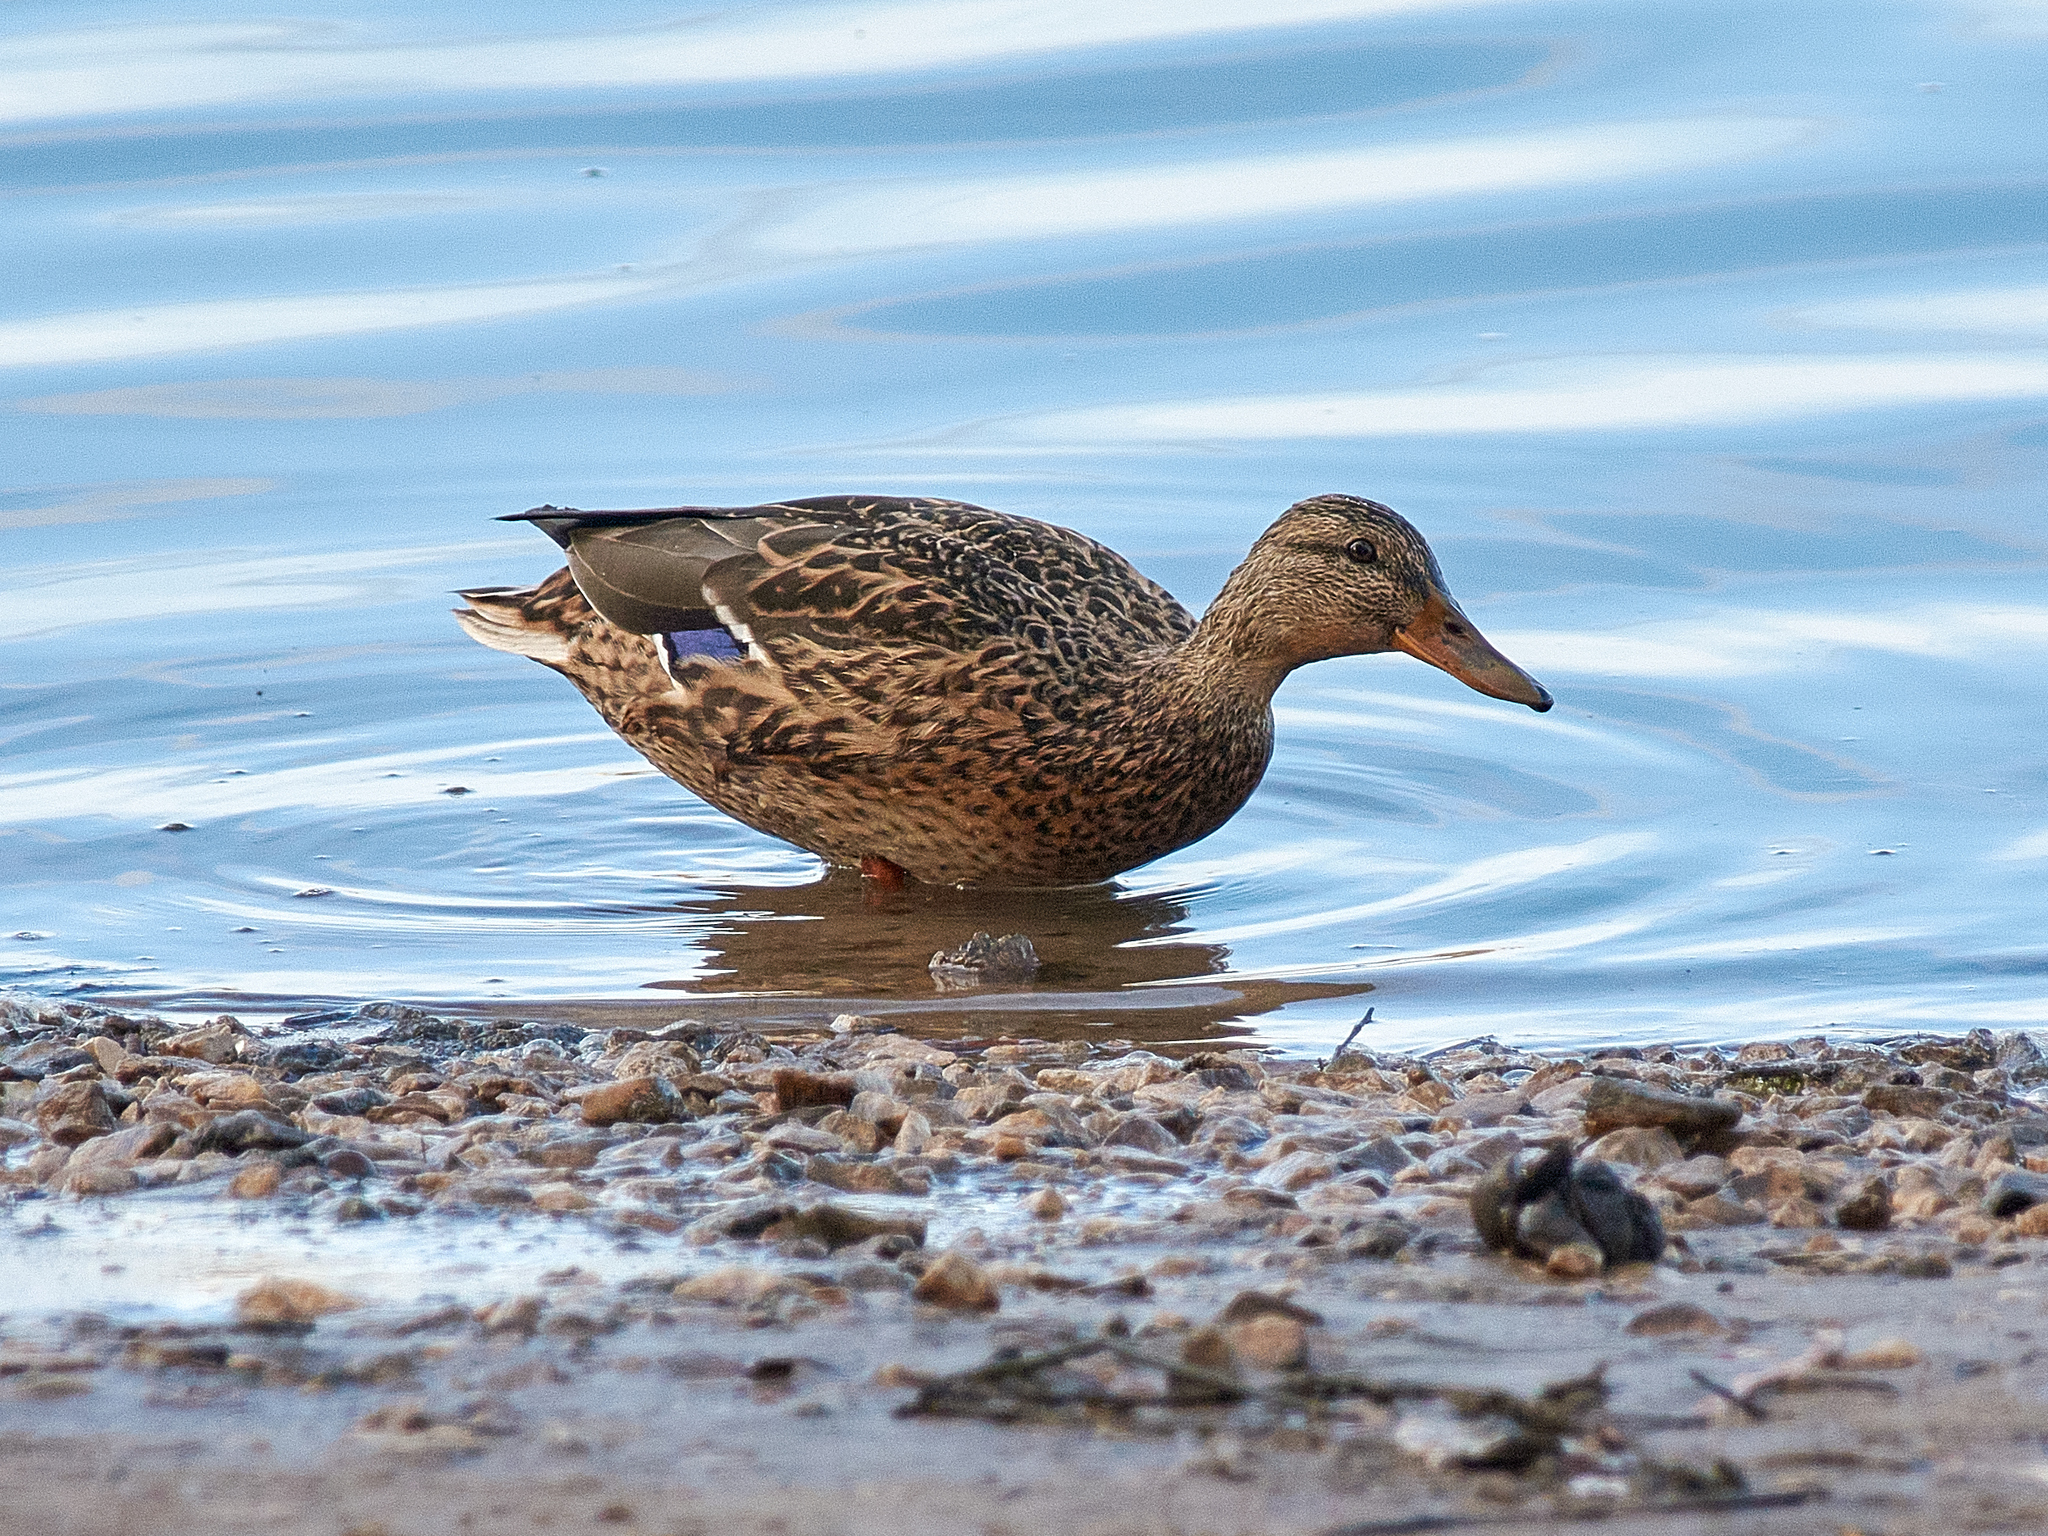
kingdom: Animalia
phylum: Chordata
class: Aves
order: Anseriformes
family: Anatidae
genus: Anas
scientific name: Anas platyrhynchos
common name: Mallard
